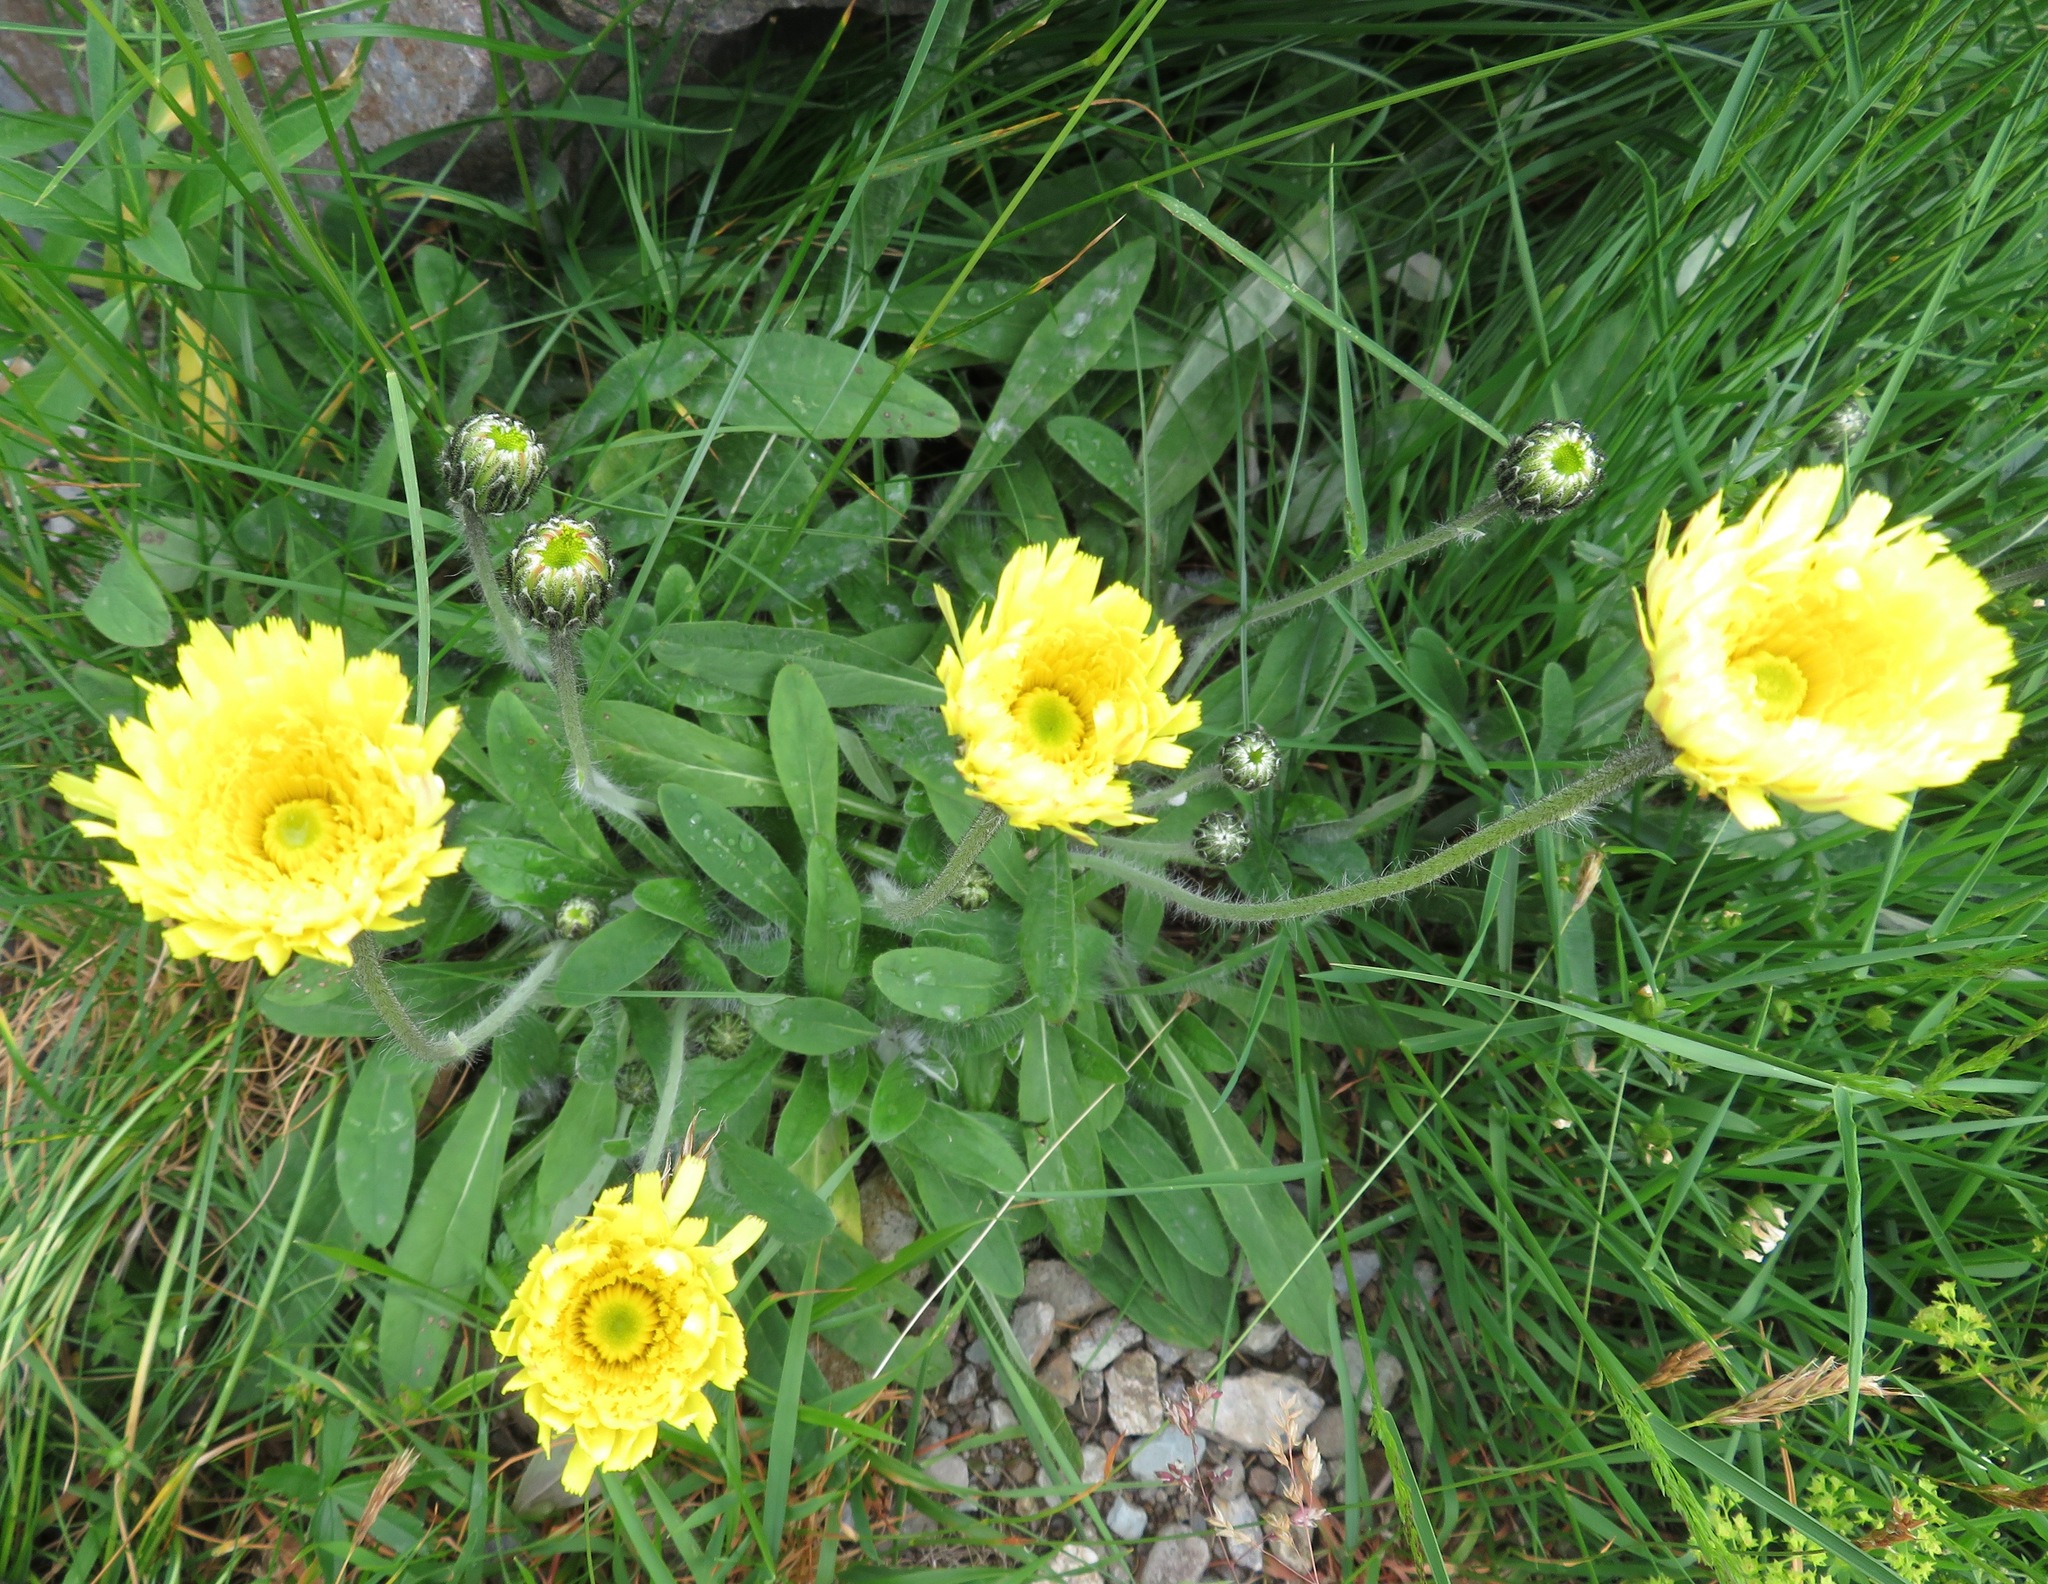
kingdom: Plantae
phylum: Tracheophyta
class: Magnoliopsida
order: Asterales
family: Asteraceae
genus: Pilosella
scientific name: Pilosella officinarum
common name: Mouse-ear hawkweed
